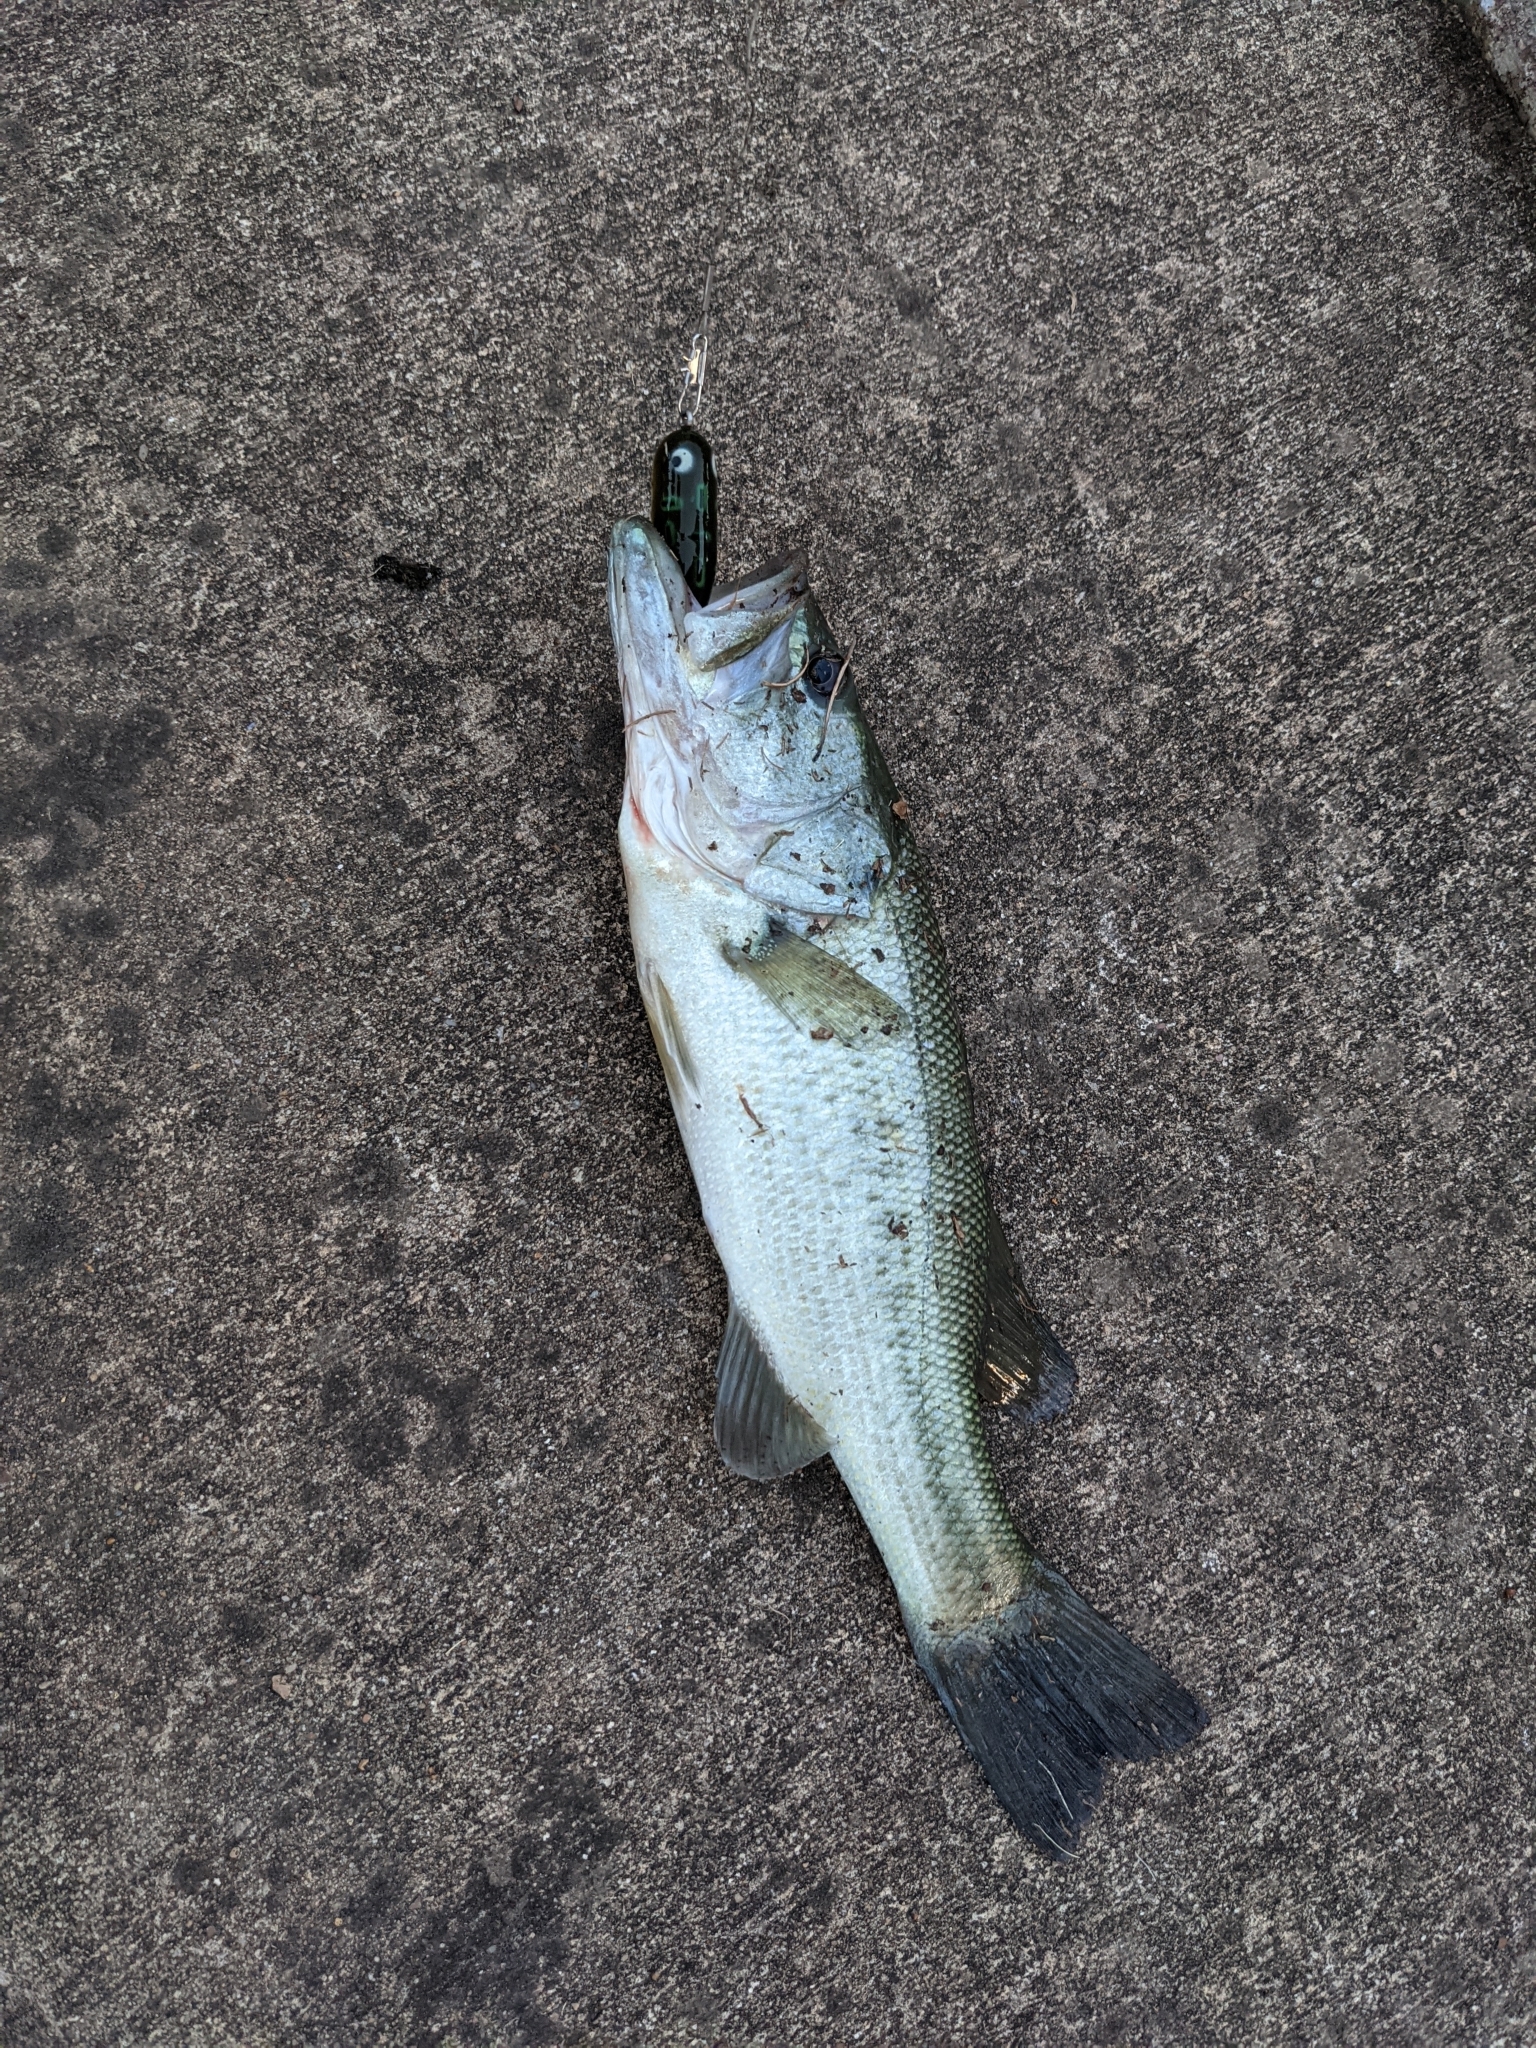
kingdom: Animalia
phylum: Chordata
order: Perciformes
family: Centrarchidae
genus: Micropterus
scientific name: Micropterus
